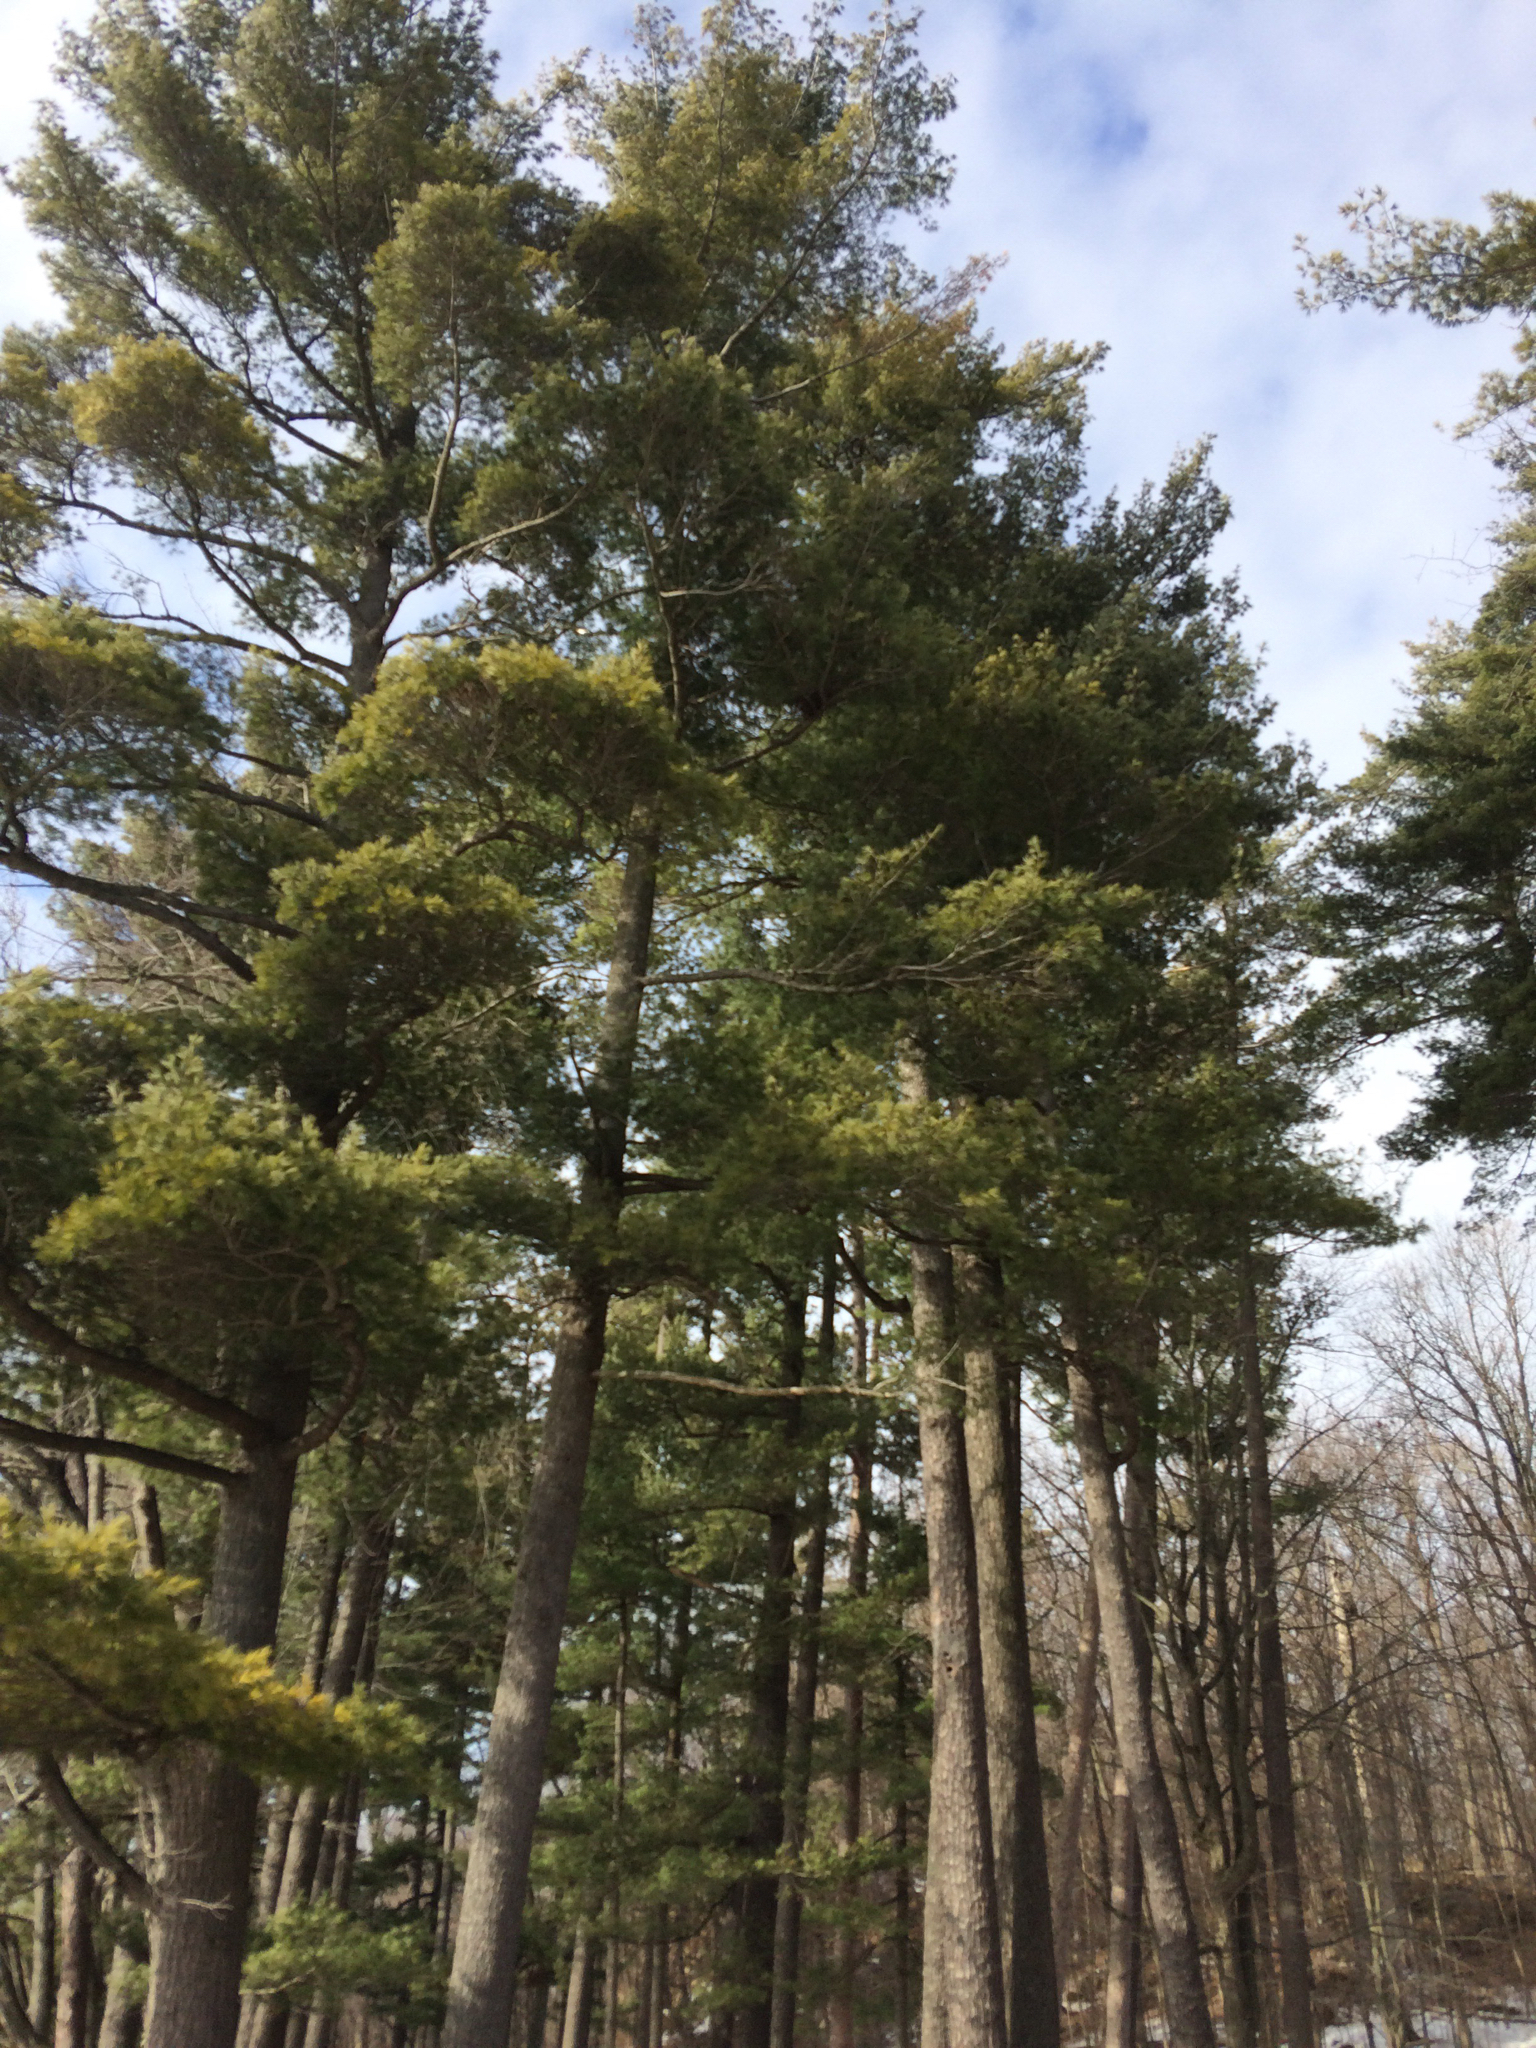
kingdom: Plantae
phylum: Tracheophyta
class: Pinopsida
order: Pinales
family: Pinaceae
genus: Pinus
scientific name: Pinus strobus
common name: Weymouth pine
